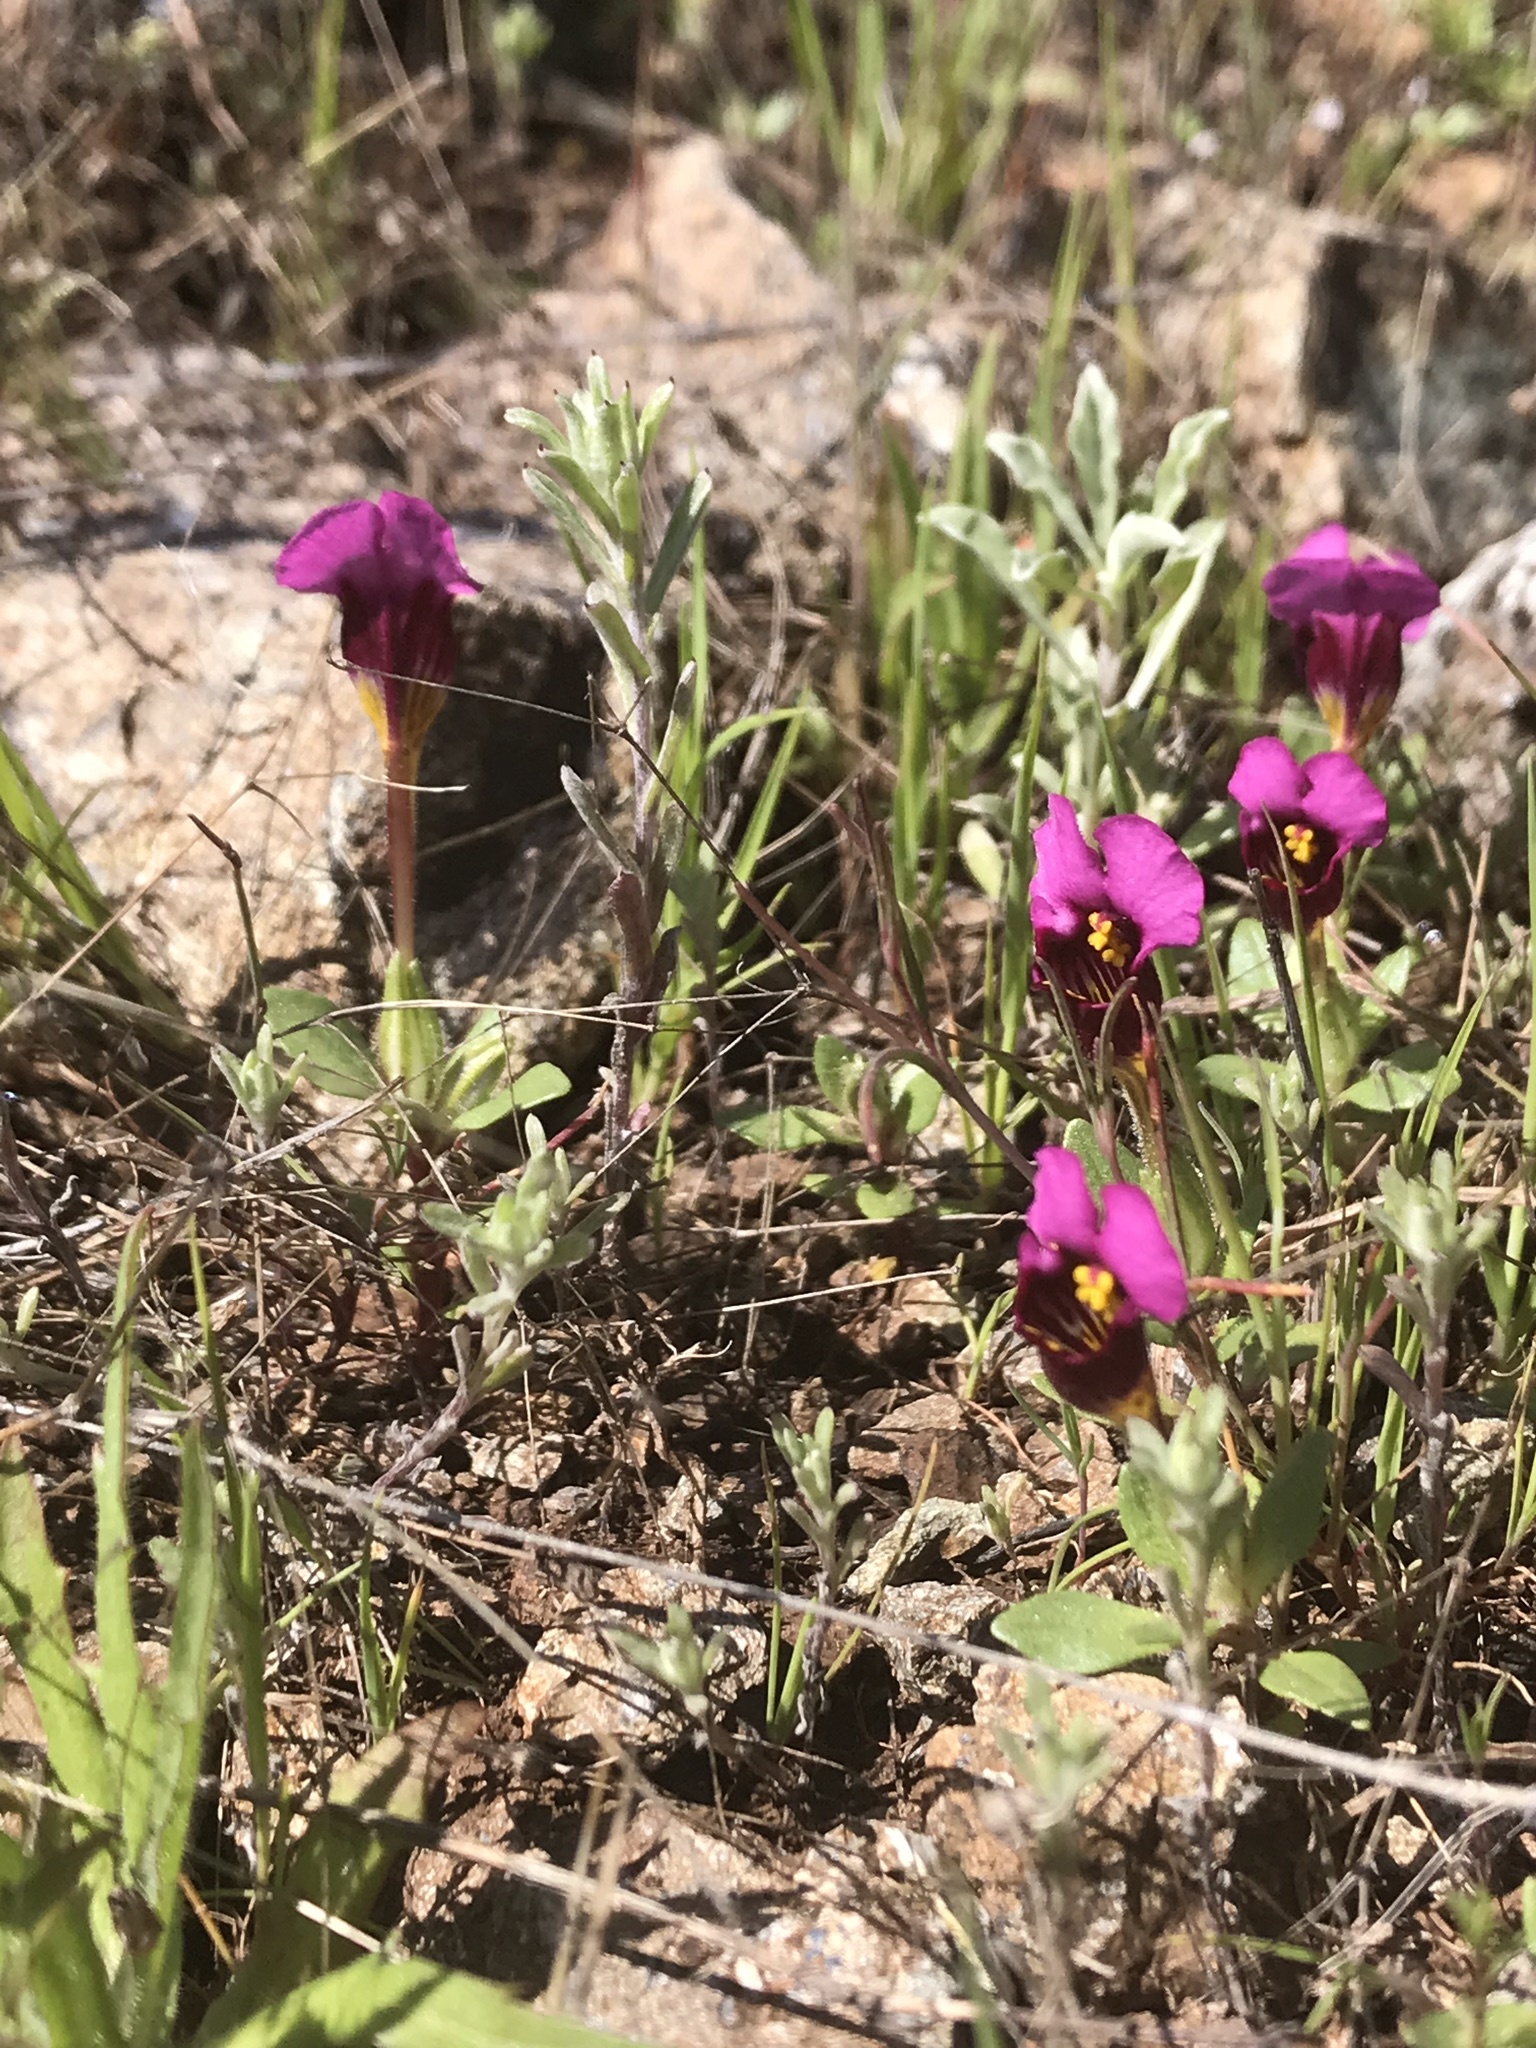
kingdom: Plantae
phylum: Tracheophyta
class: Magnoliopsida
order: Lamiales
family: Phrymaceae
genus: Diplacus
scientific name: Diplacus douglasii
